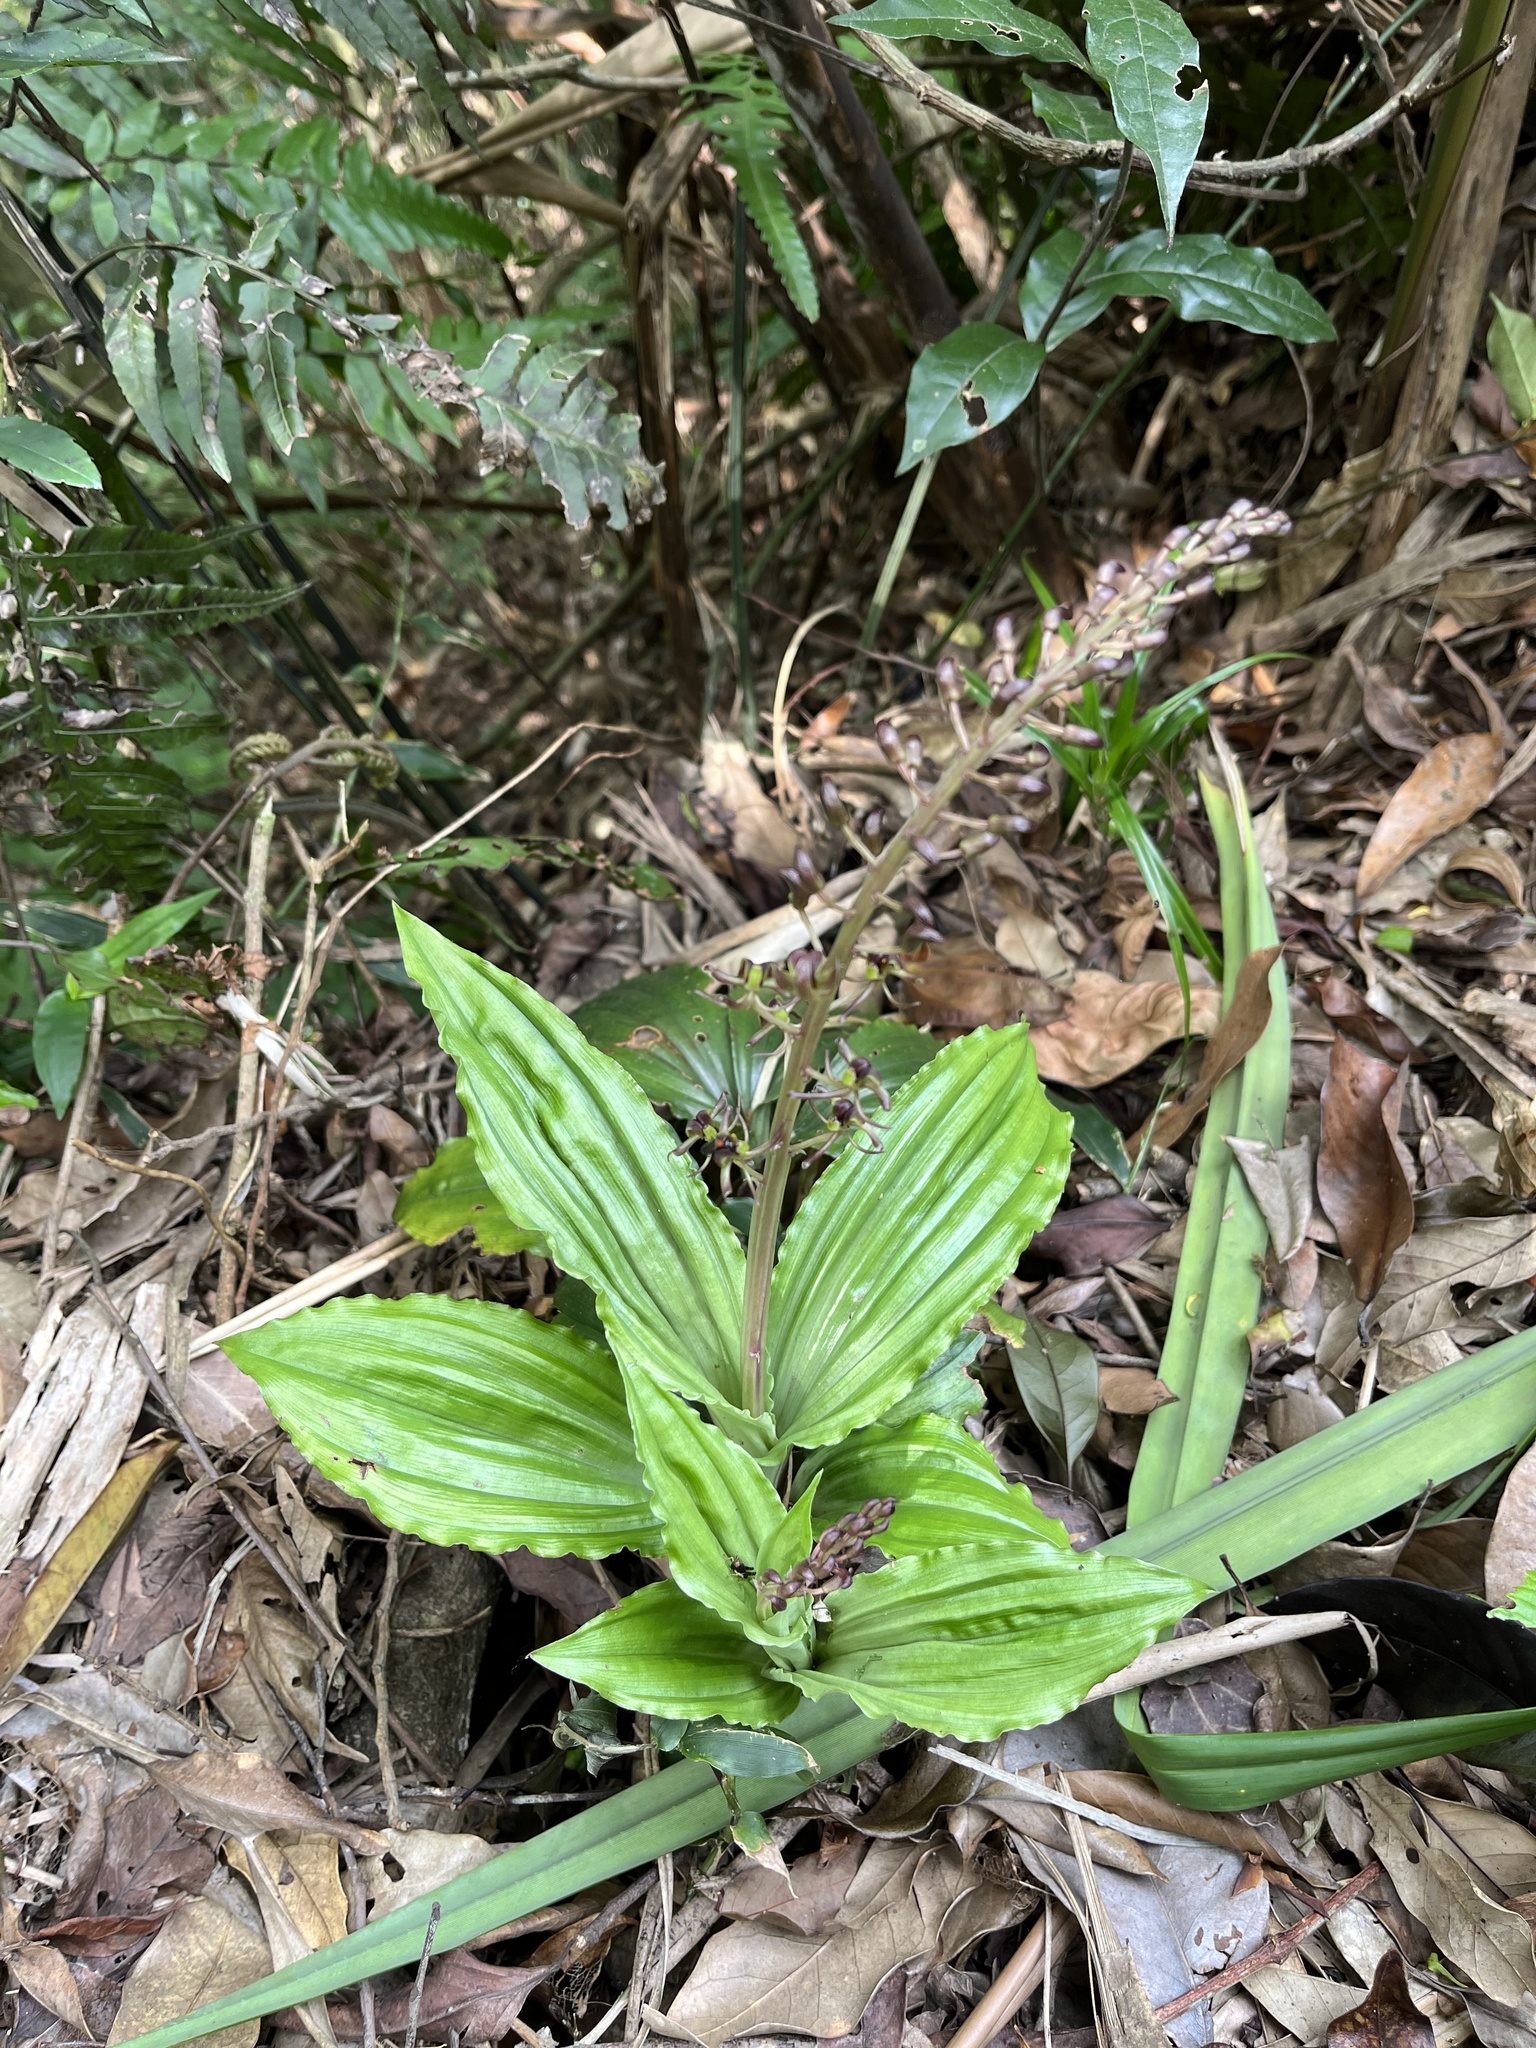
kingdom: Plantae
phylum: Tracheophyta
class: Liliopsida
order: Asparagales
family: Orchidaceae
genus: Liparis
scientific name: Liparis formosana
